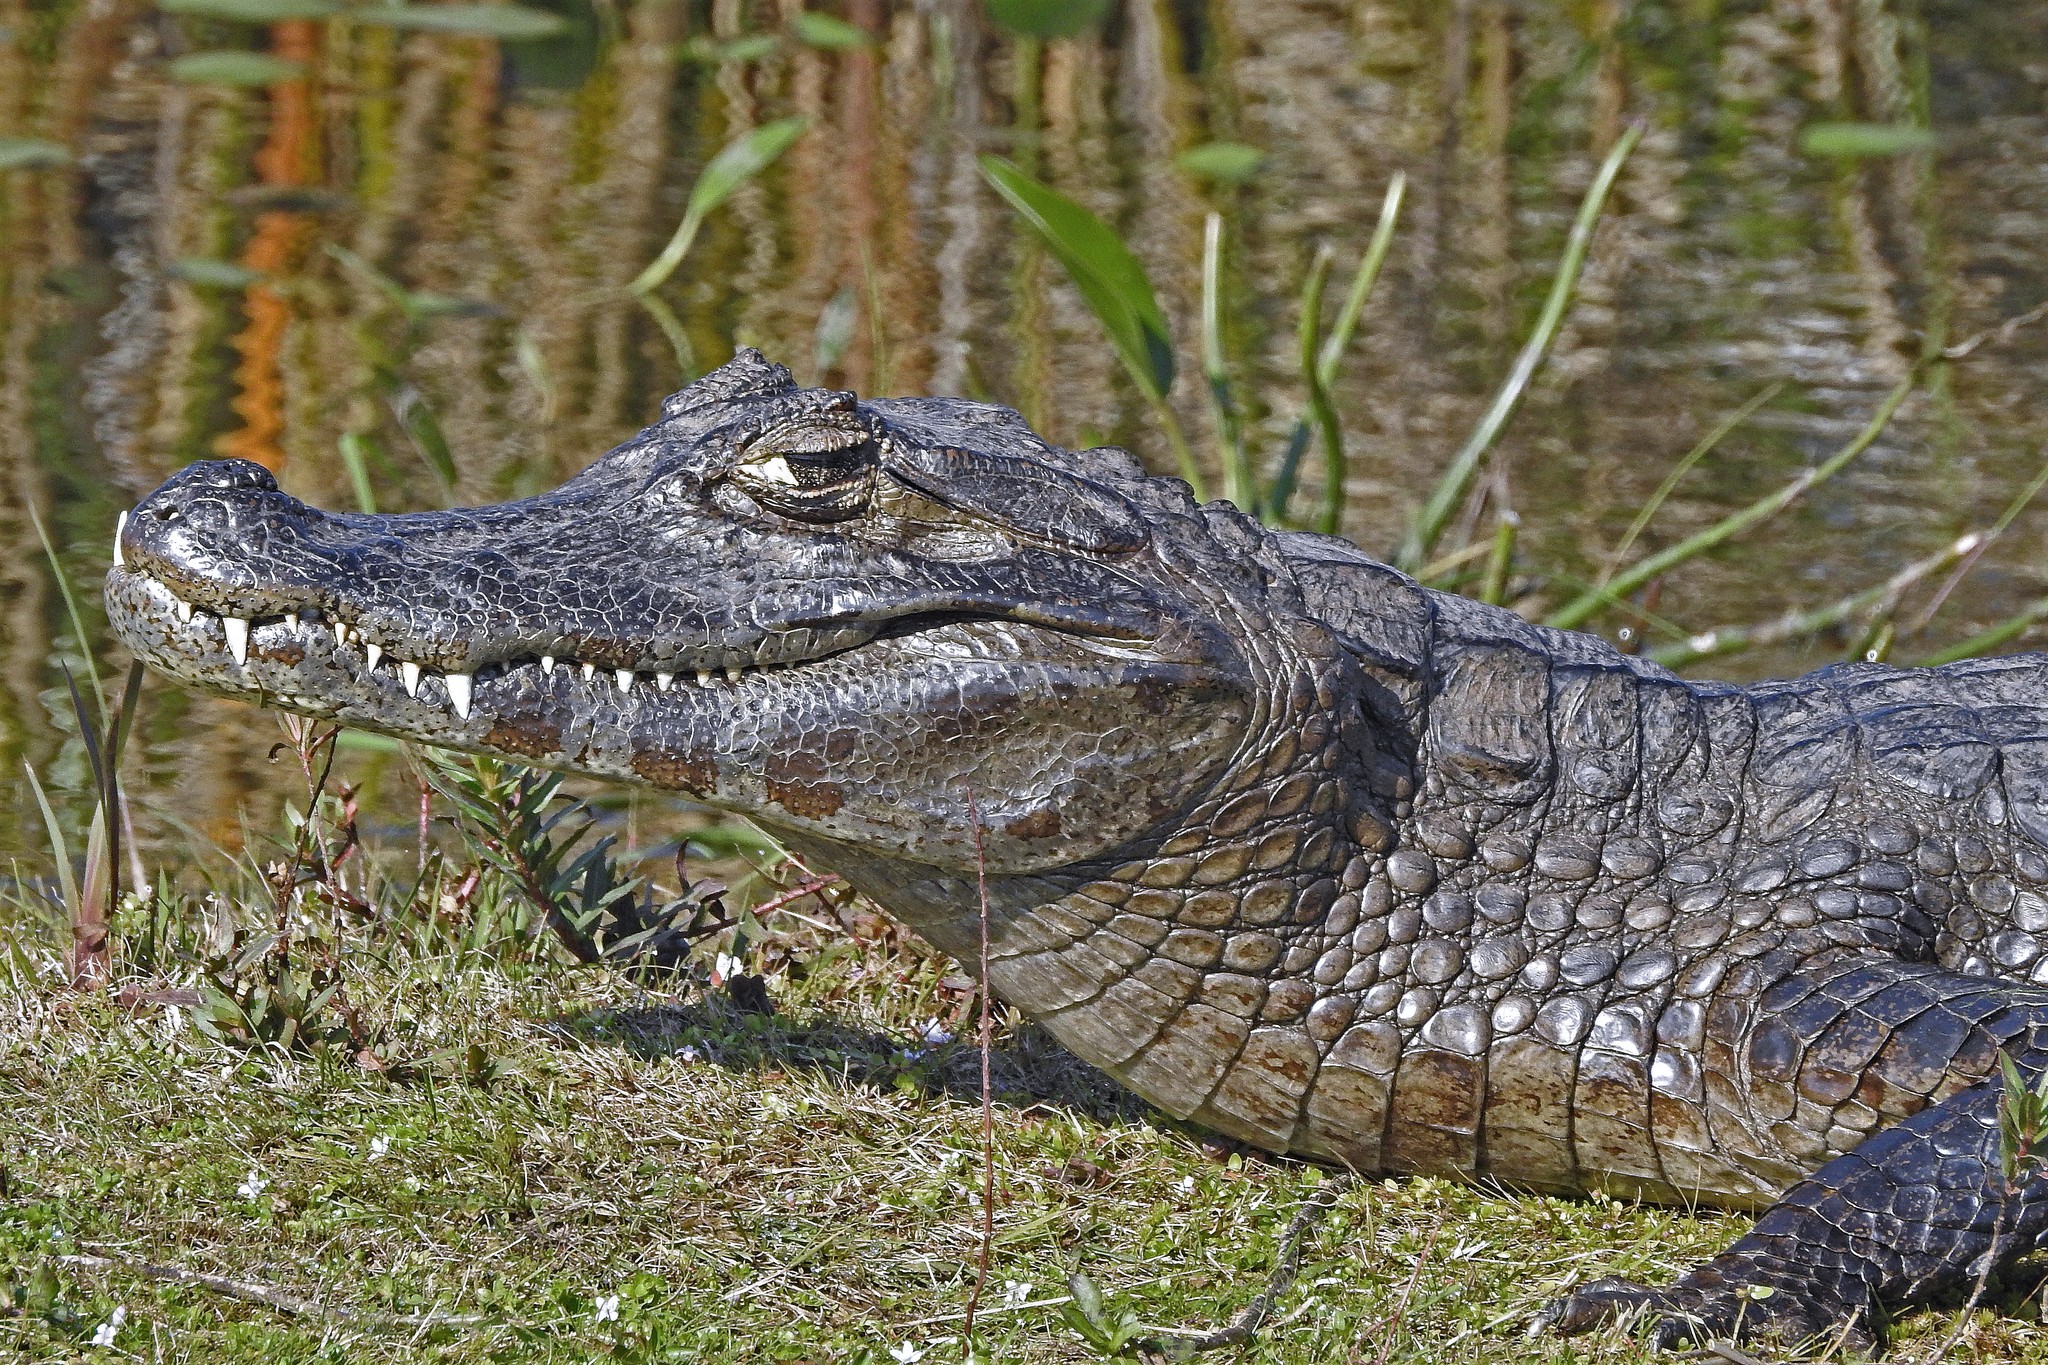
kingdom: Animalia
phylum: Chordata
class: Crocodylia
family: Alligatoridae
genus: Caiman
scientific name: Caiman yacare
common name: Yacare caiman
